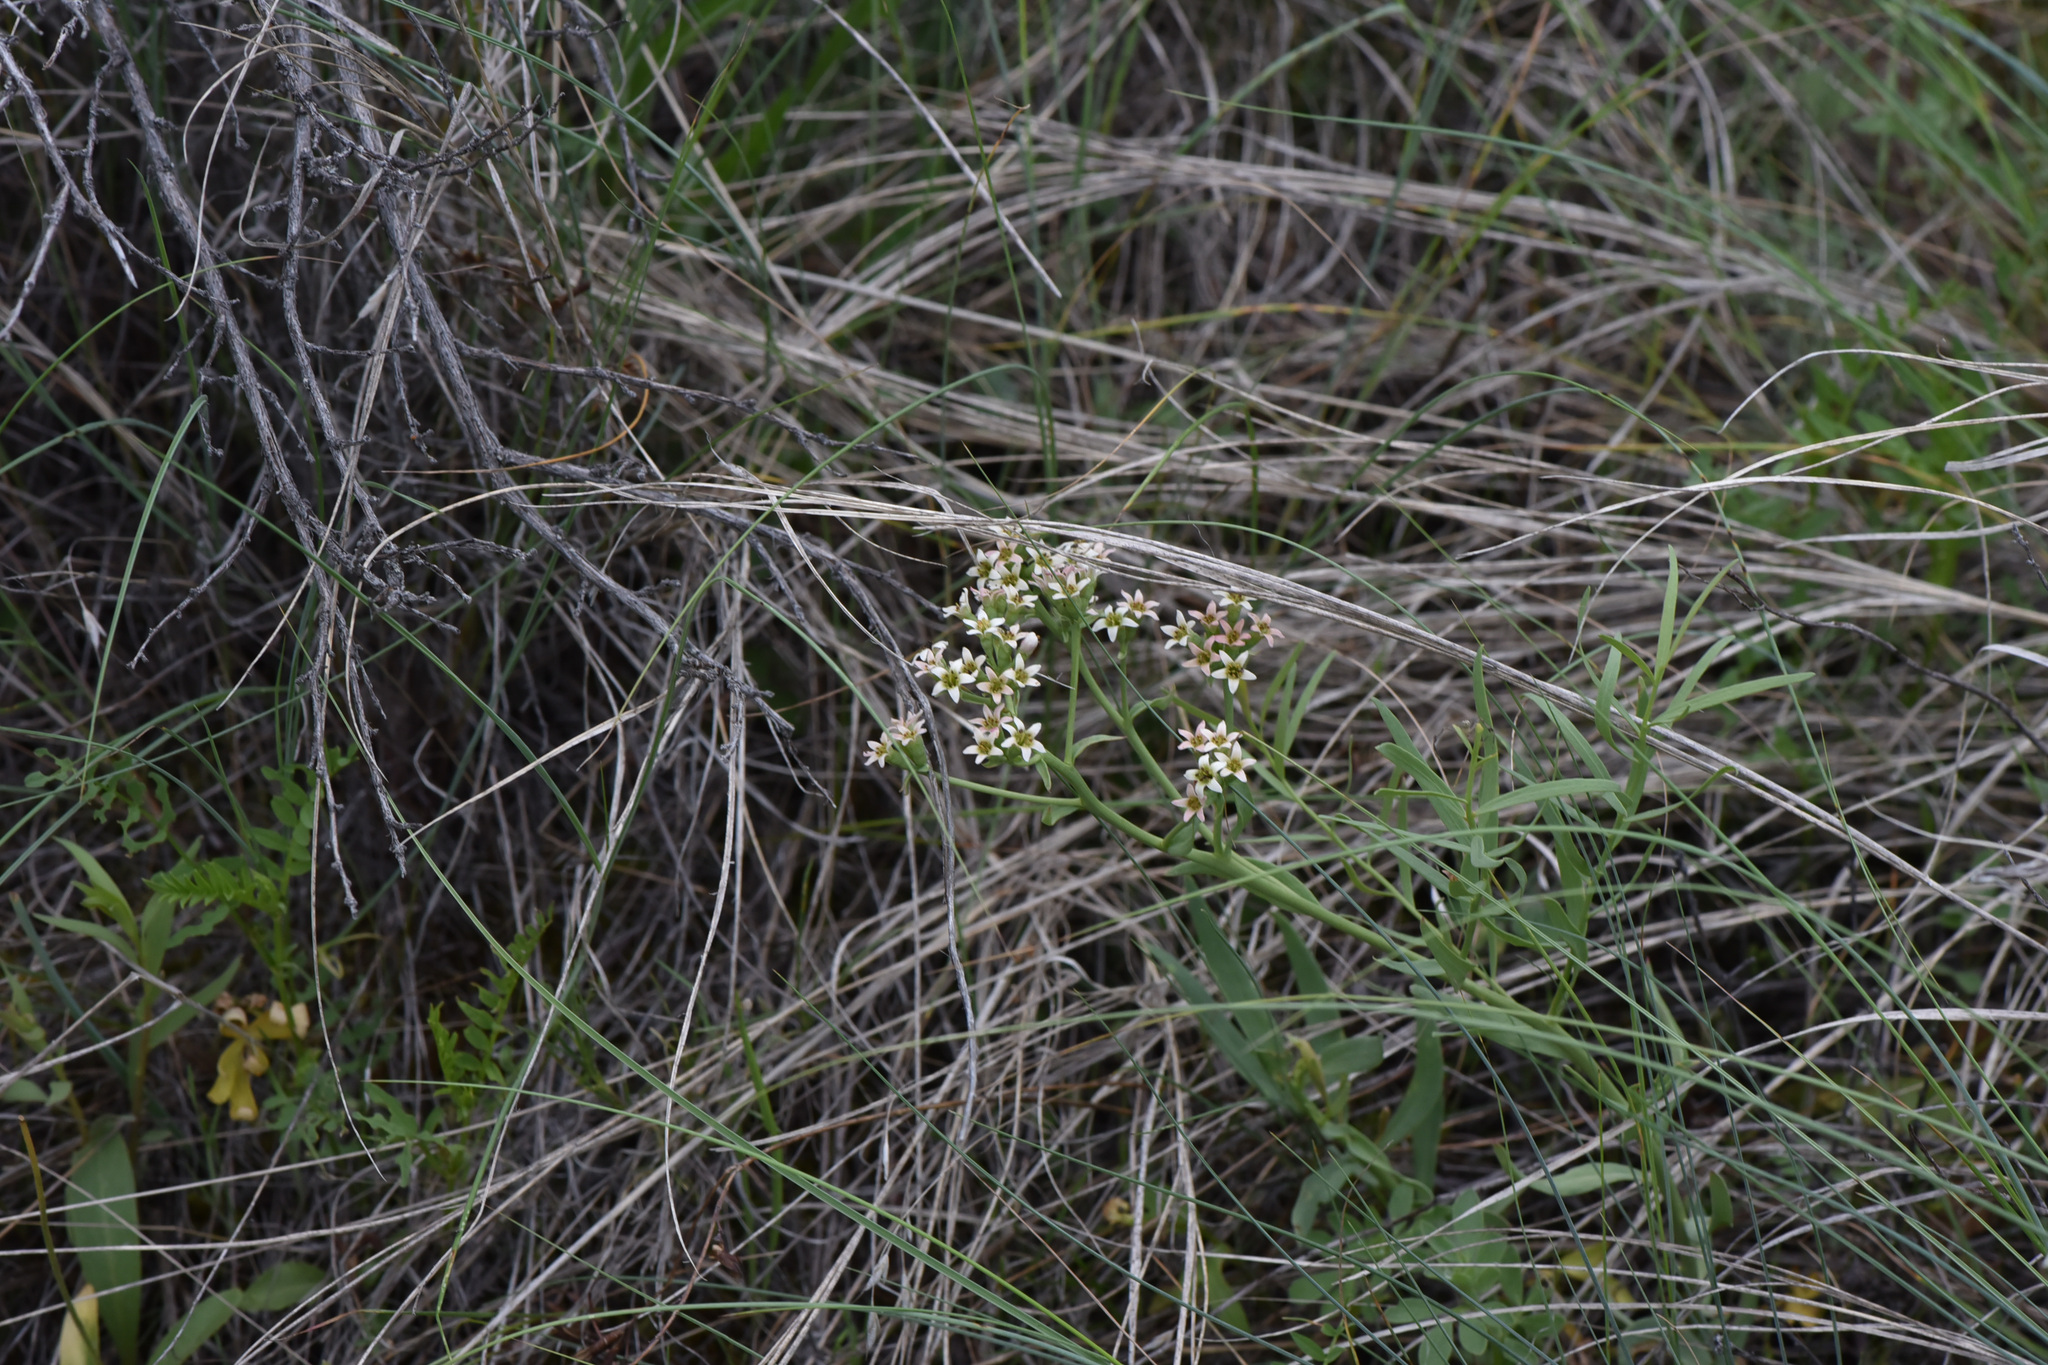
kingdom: Plantae
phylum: Tracheophyta
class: Magnoliopsida
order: Santalales
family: Comandraceae
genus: Comandra
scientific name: Comandra umbellata
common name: Bastard toadflax
